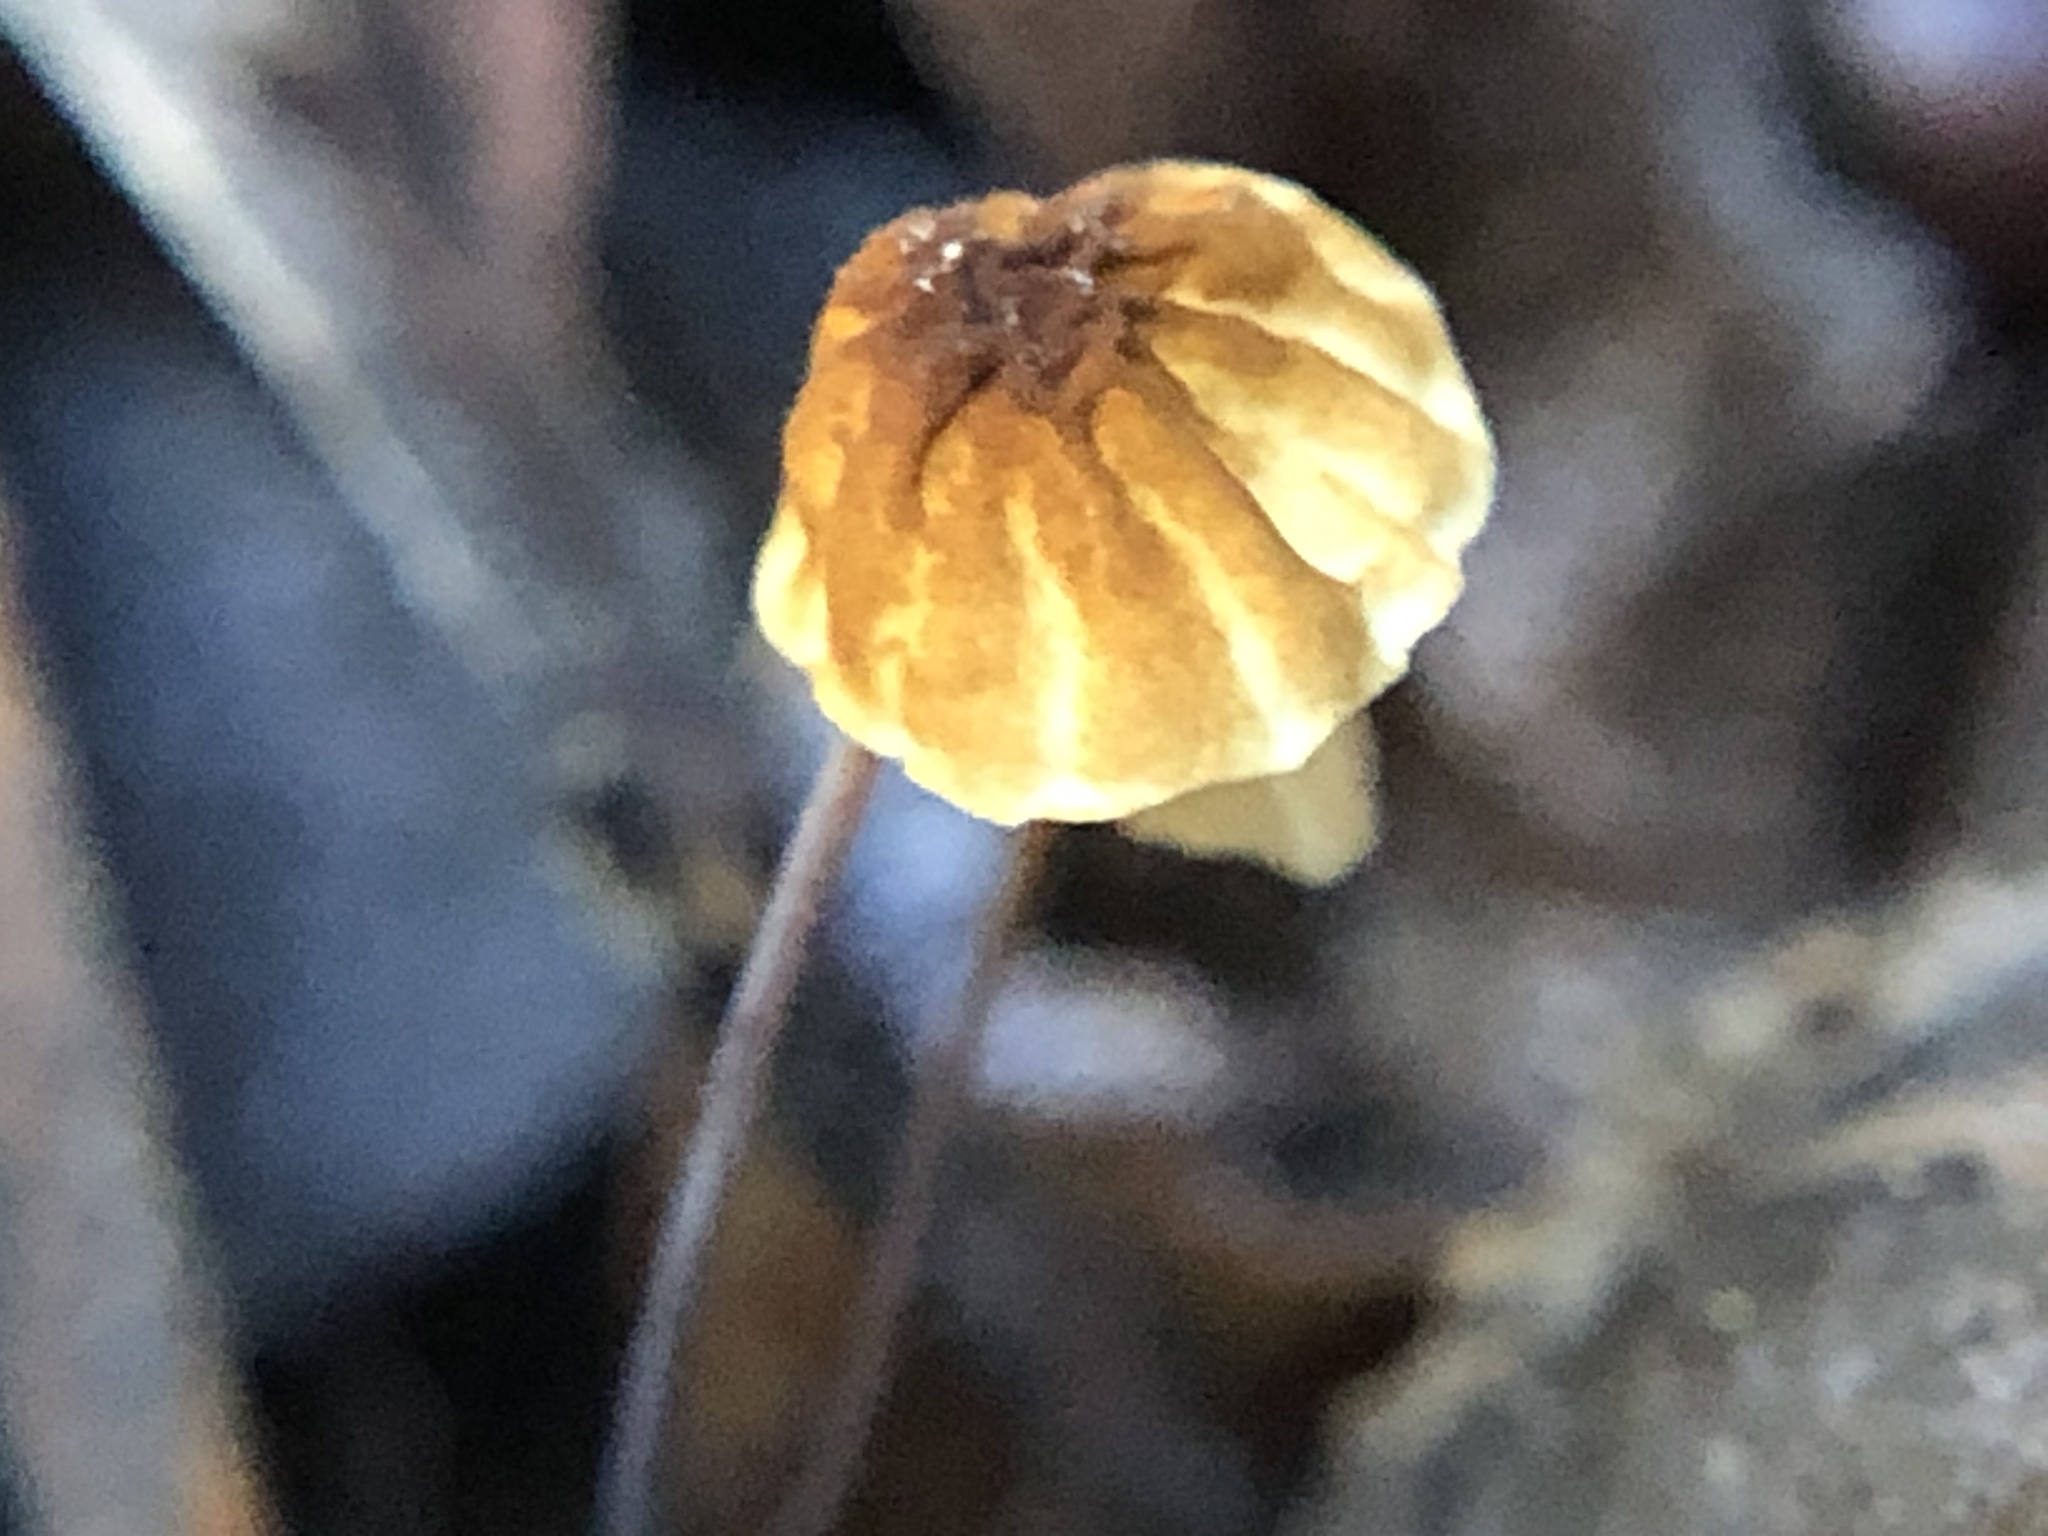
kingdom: Fungi
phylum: Basidiomycota
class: Agaricomycetes
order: Agaricales
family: Physalacriaceae
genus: Cryptomarasmius
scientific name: Cryptomarasmius corbariensis
